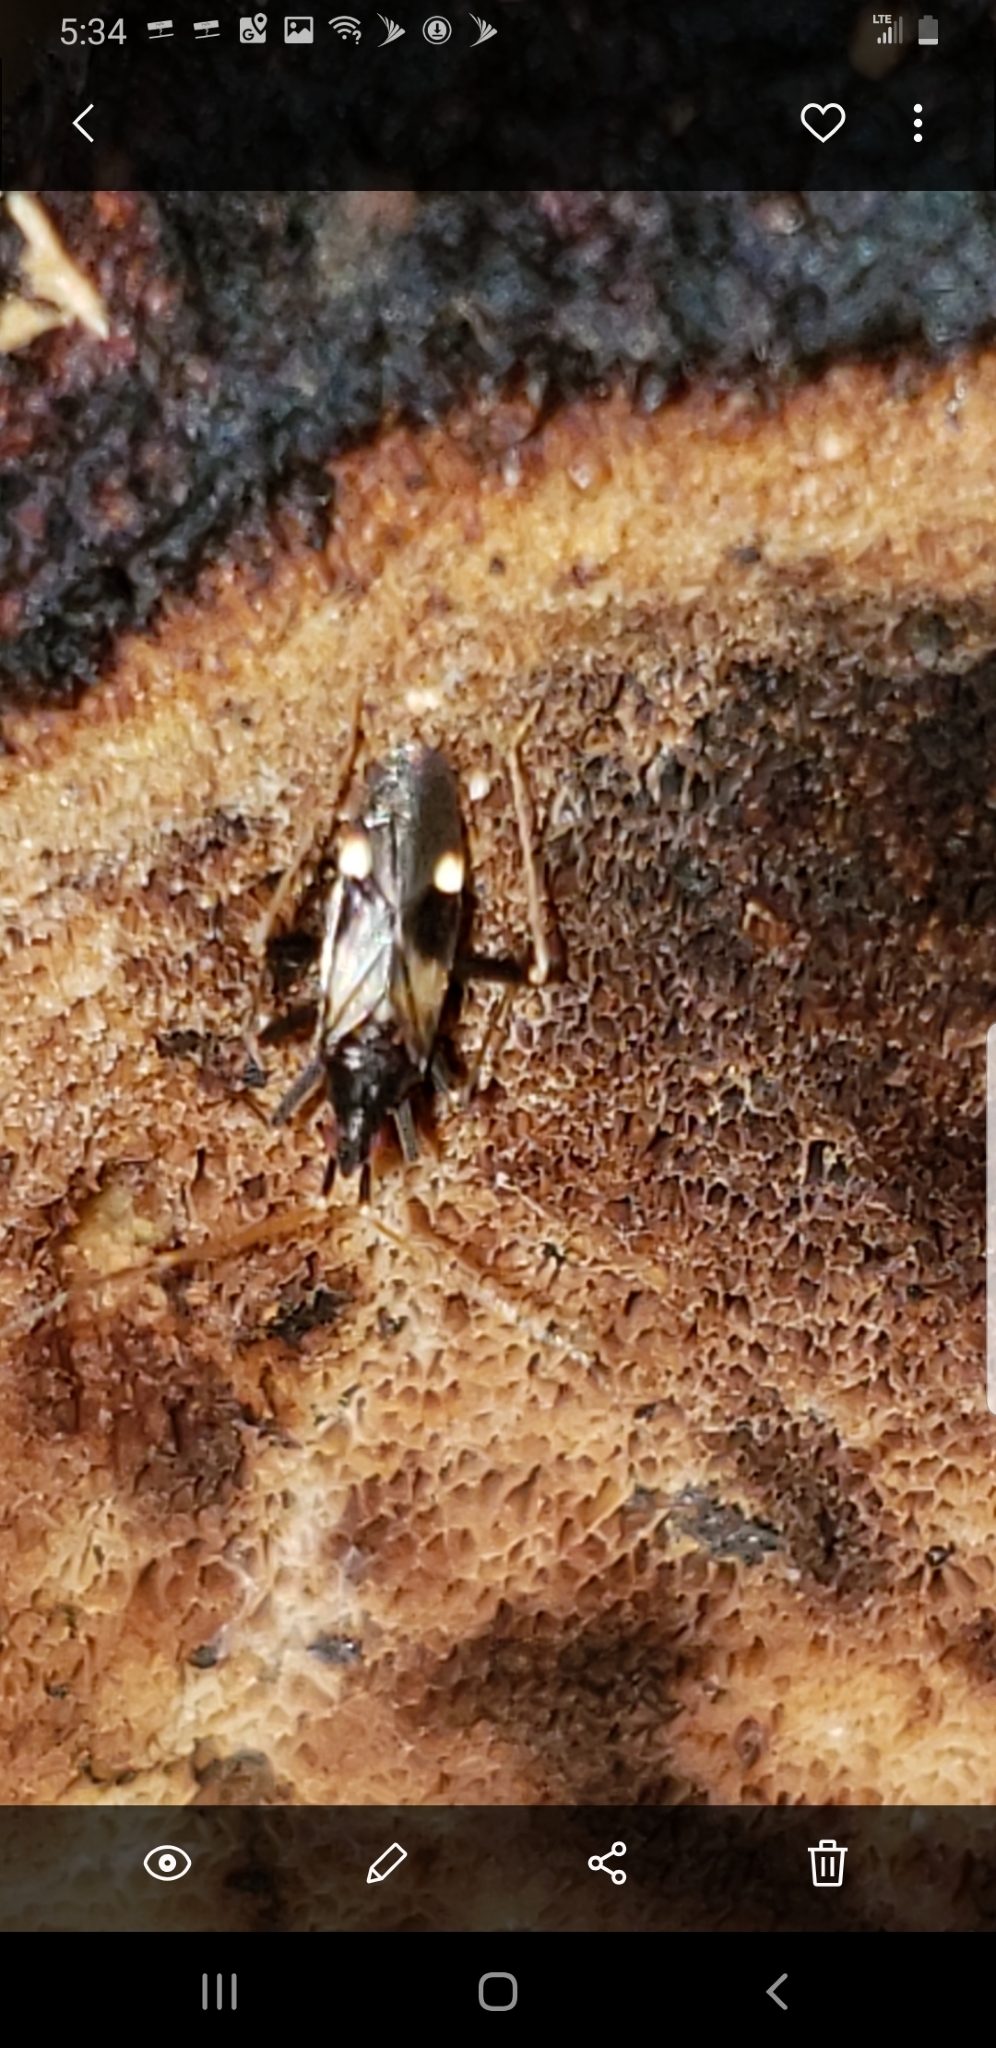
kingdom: Animalia
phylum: Arthropoda
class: Insecta
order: Hemiptera
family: Miridae
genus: Fulvius
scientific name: Fulvius slateri
